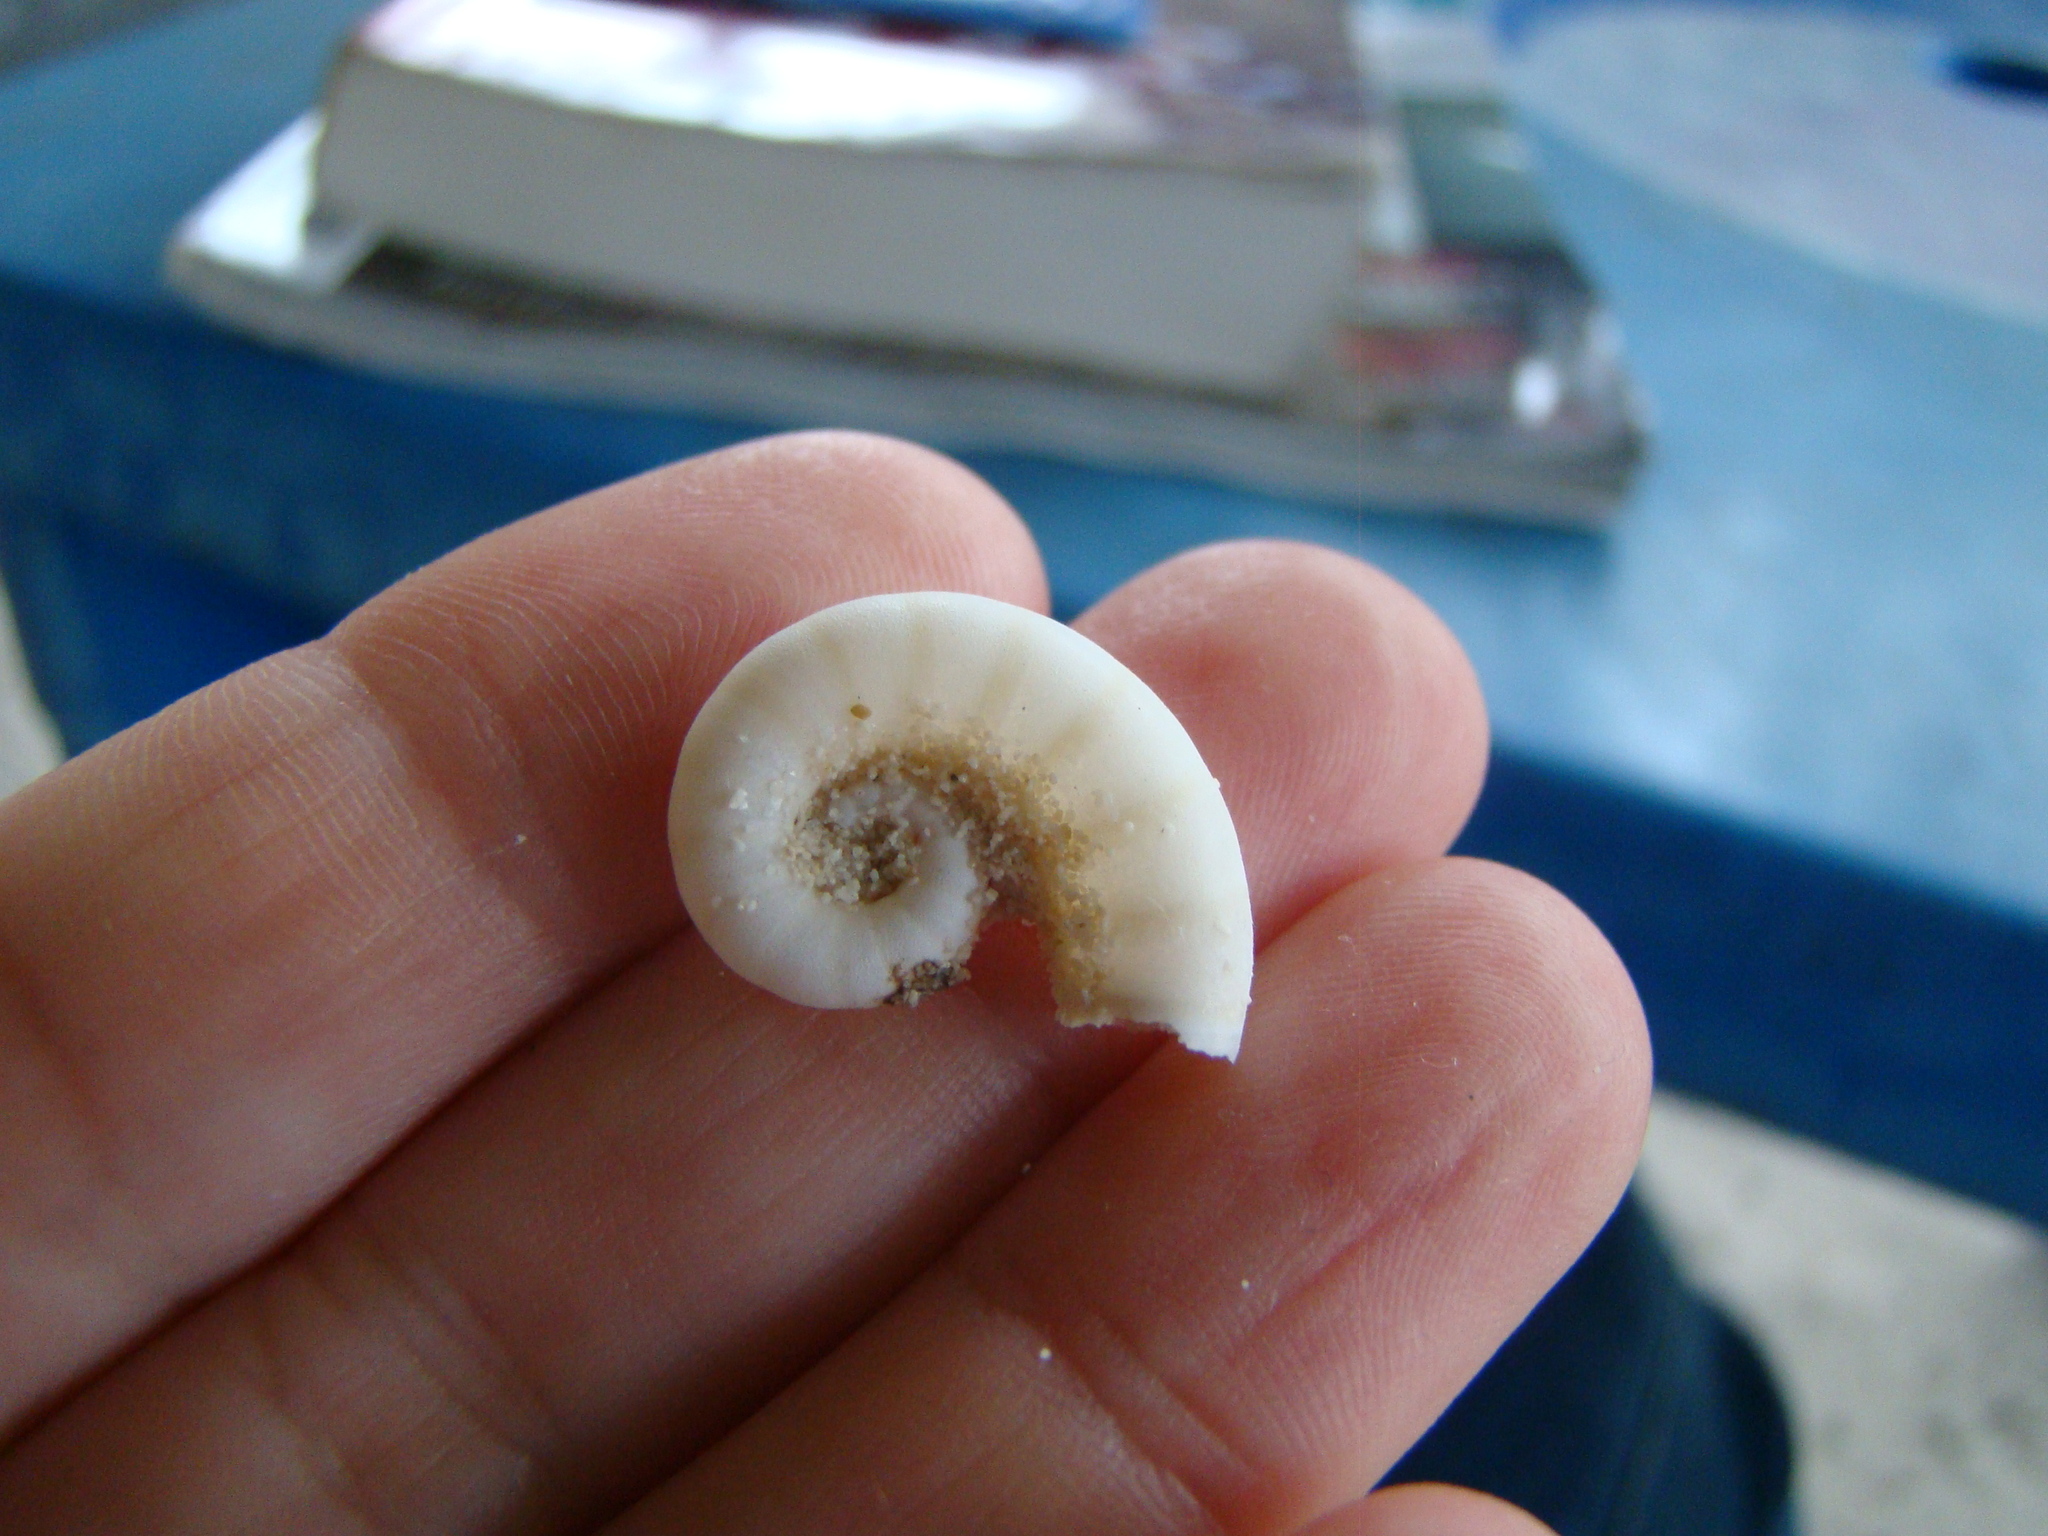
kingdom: Animalia
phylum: Mollusca
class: Cephalopoda
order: Spirulida
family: Spirulidae
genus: Spirula
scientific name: Spirula spirula
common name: Ram's horn squid
